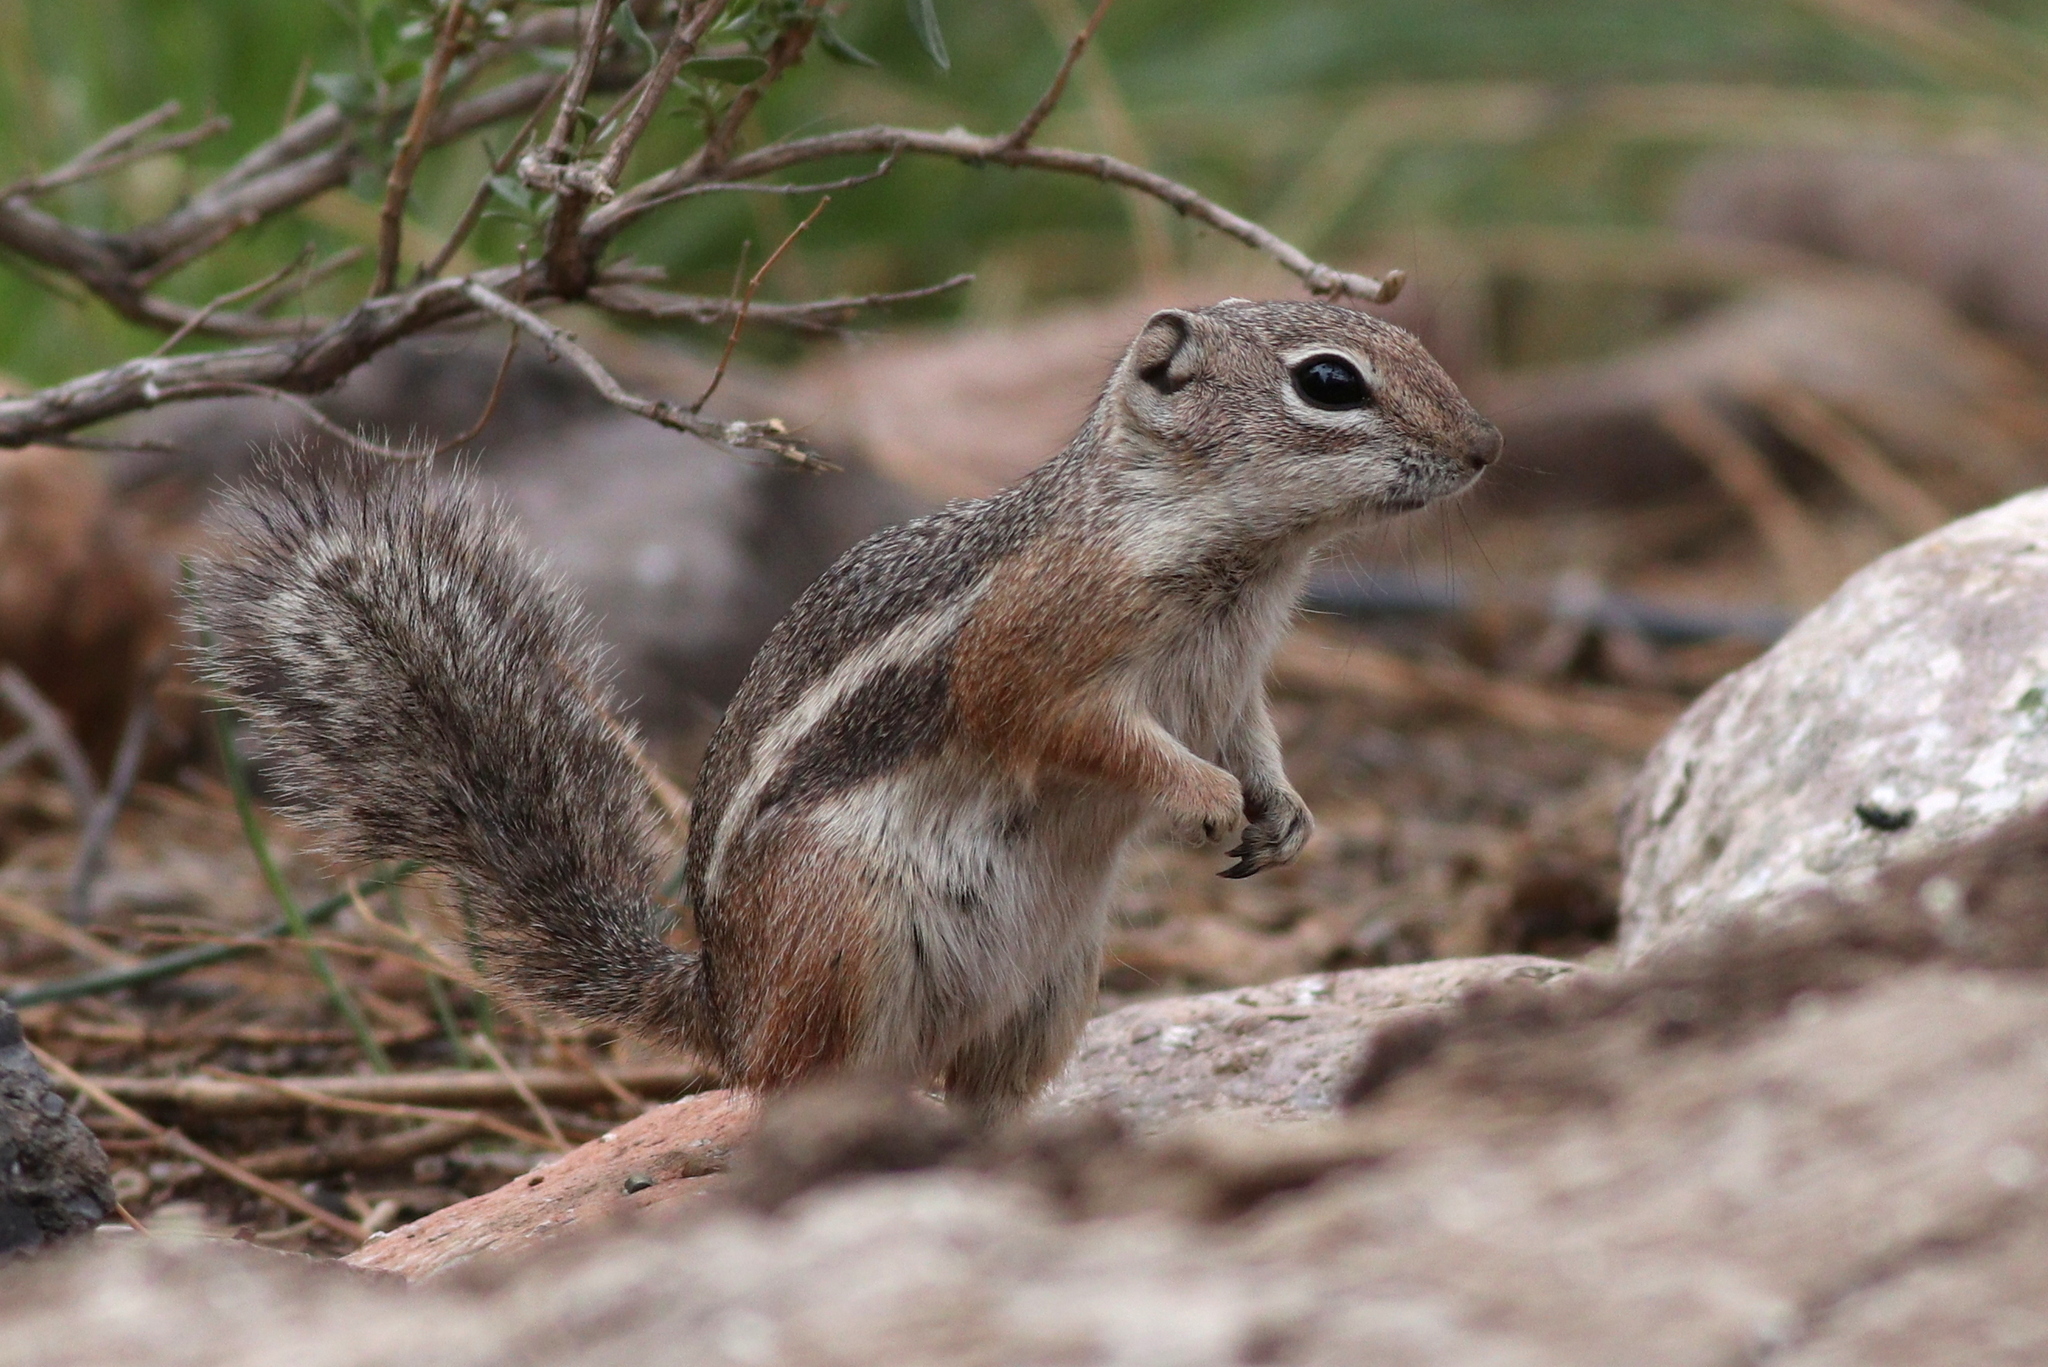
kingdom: Animalia
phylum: Chordata
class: Mammalia
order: Rodentia
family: Sciuridae
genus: Ammospermophilus
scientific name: Ammospermophilus harrisii
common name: Harris's antelope squirrel
